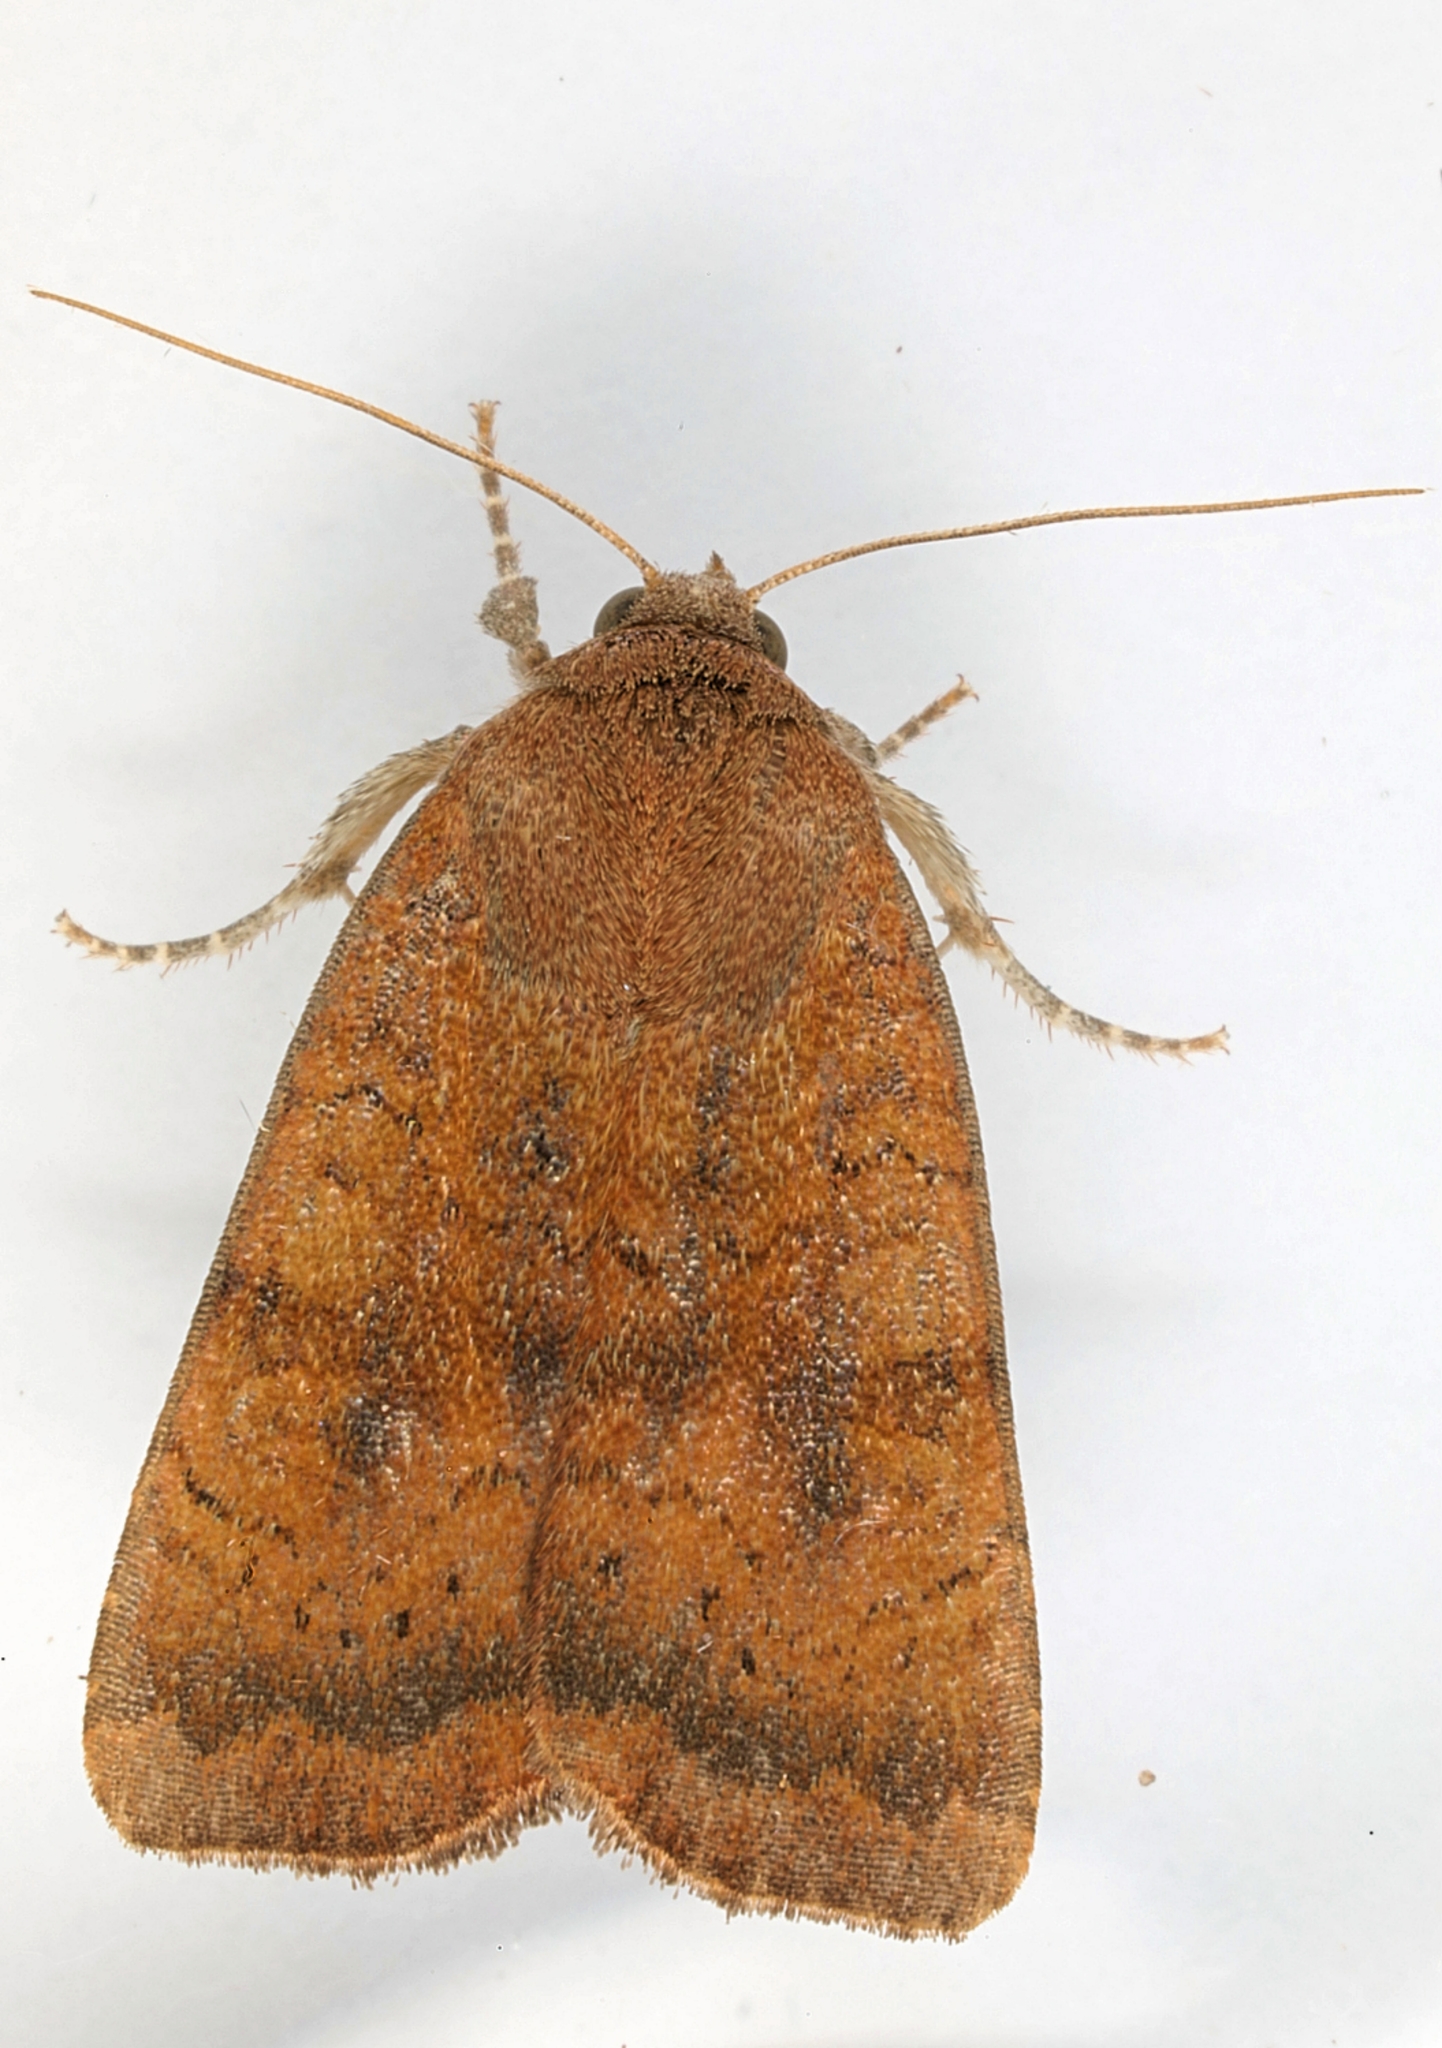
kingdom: Animalia
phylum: Arthropoda
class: Insecta
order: Lepidoptera
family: Noctuidae
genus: Noctua
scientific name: Noctua interjecta
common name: Least yellow underwing
